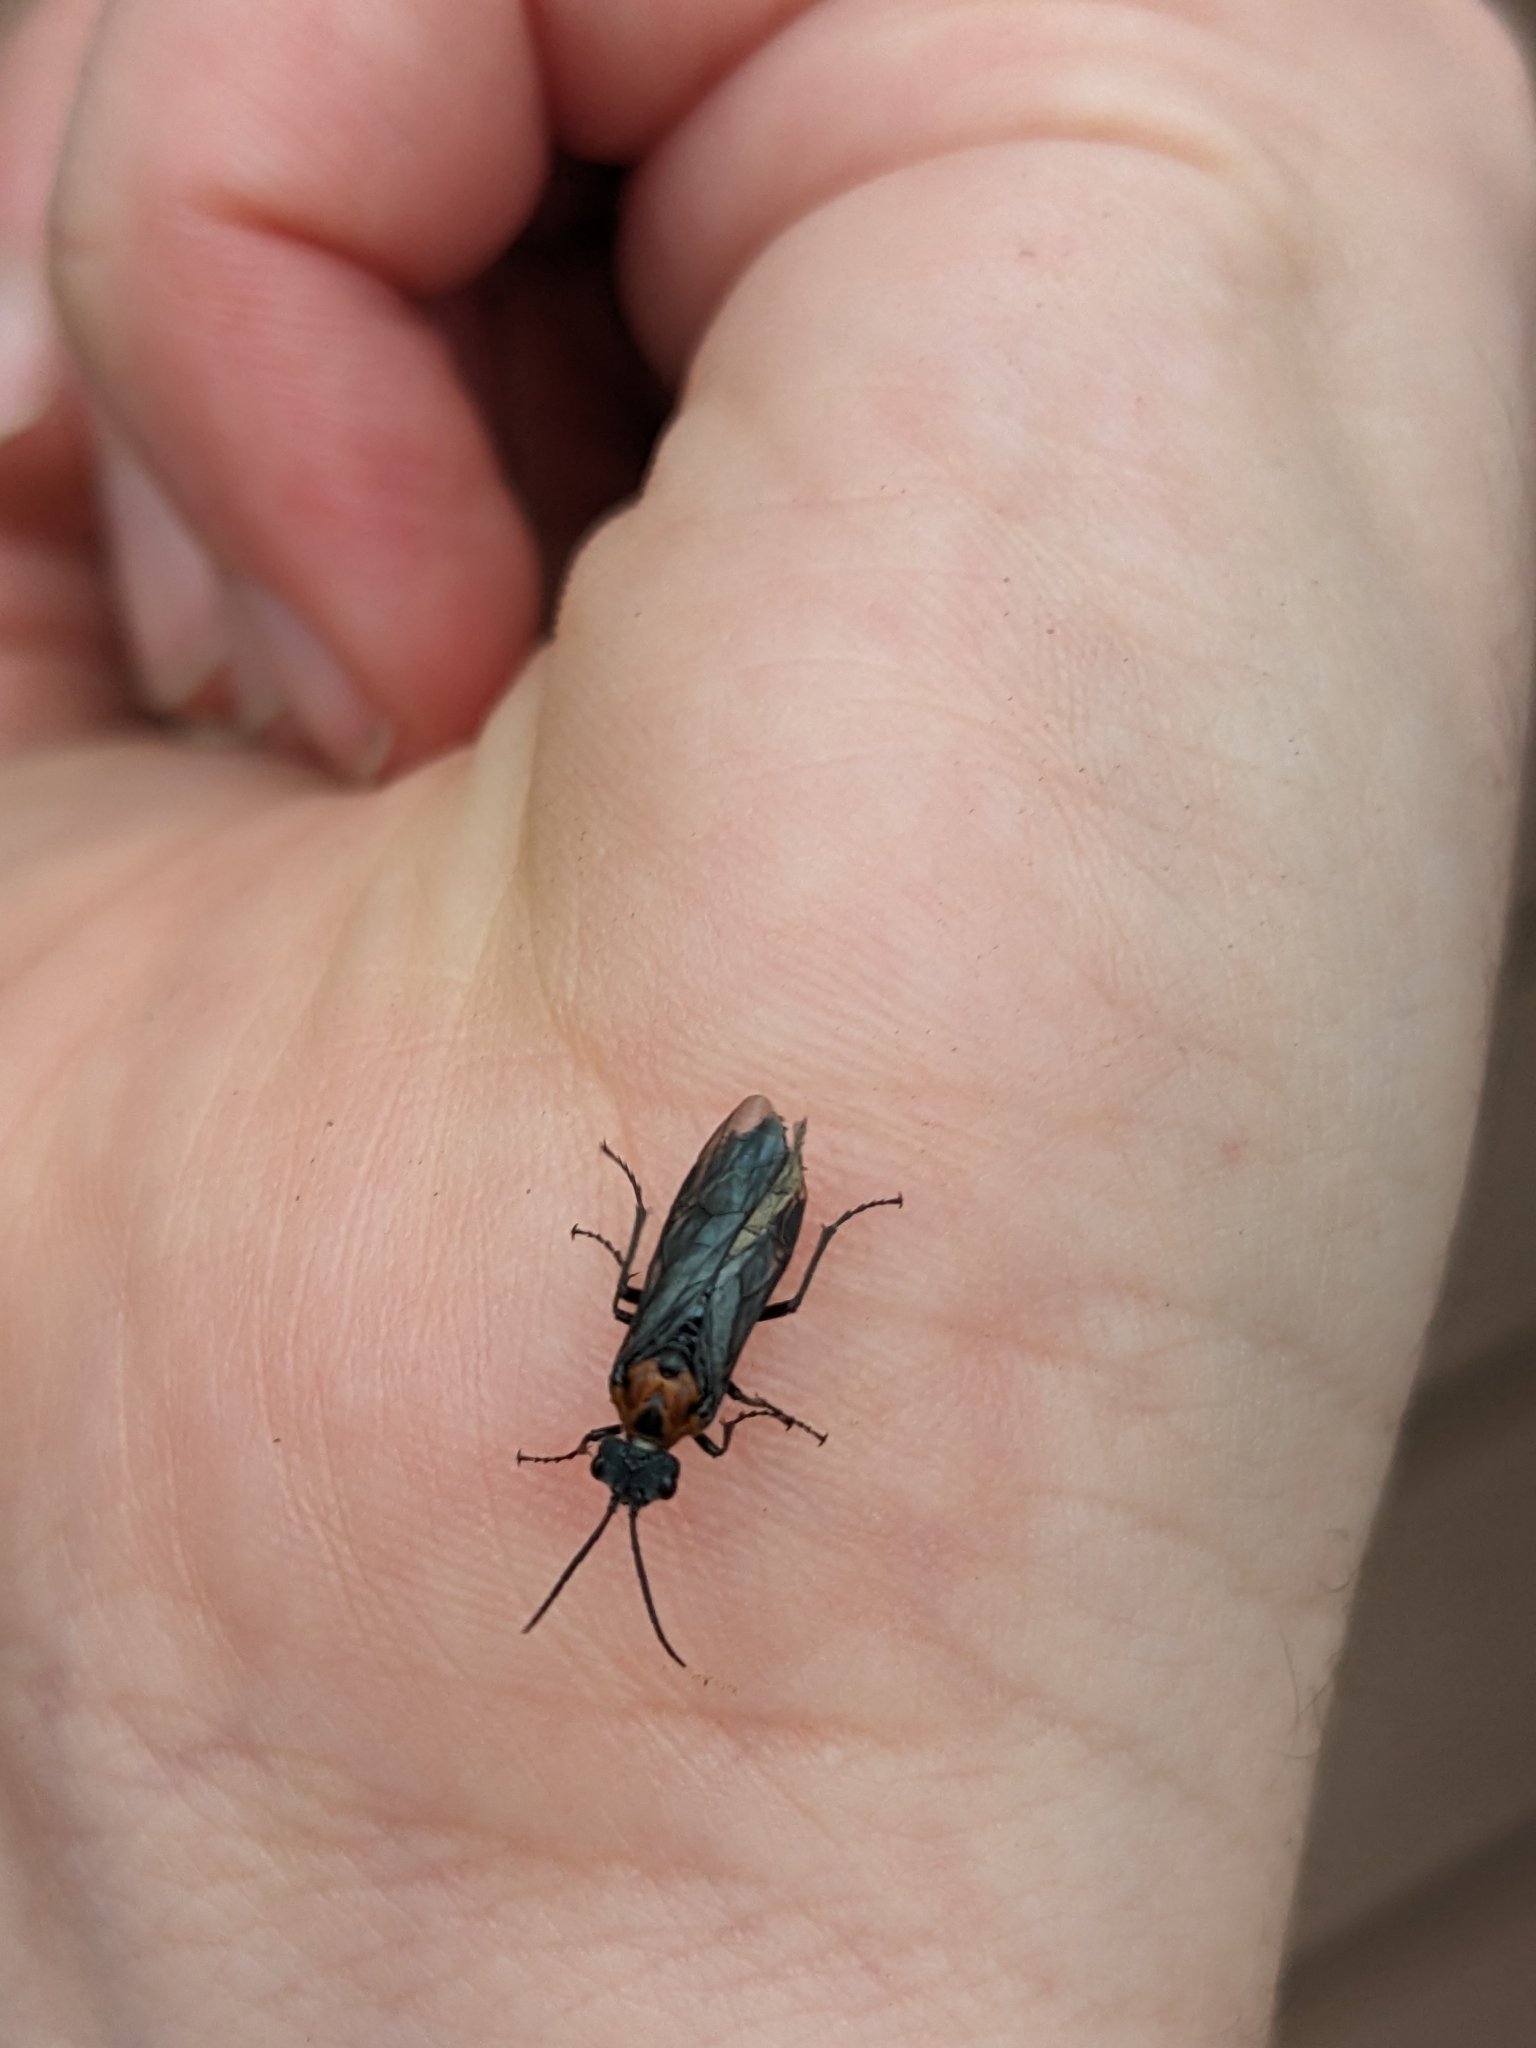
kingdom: Animalia
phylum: Arthropoda
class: Insecta
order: Hymenoptera
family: Tenthredinidae
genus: Dolerus
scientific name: Dolerus unicolor
